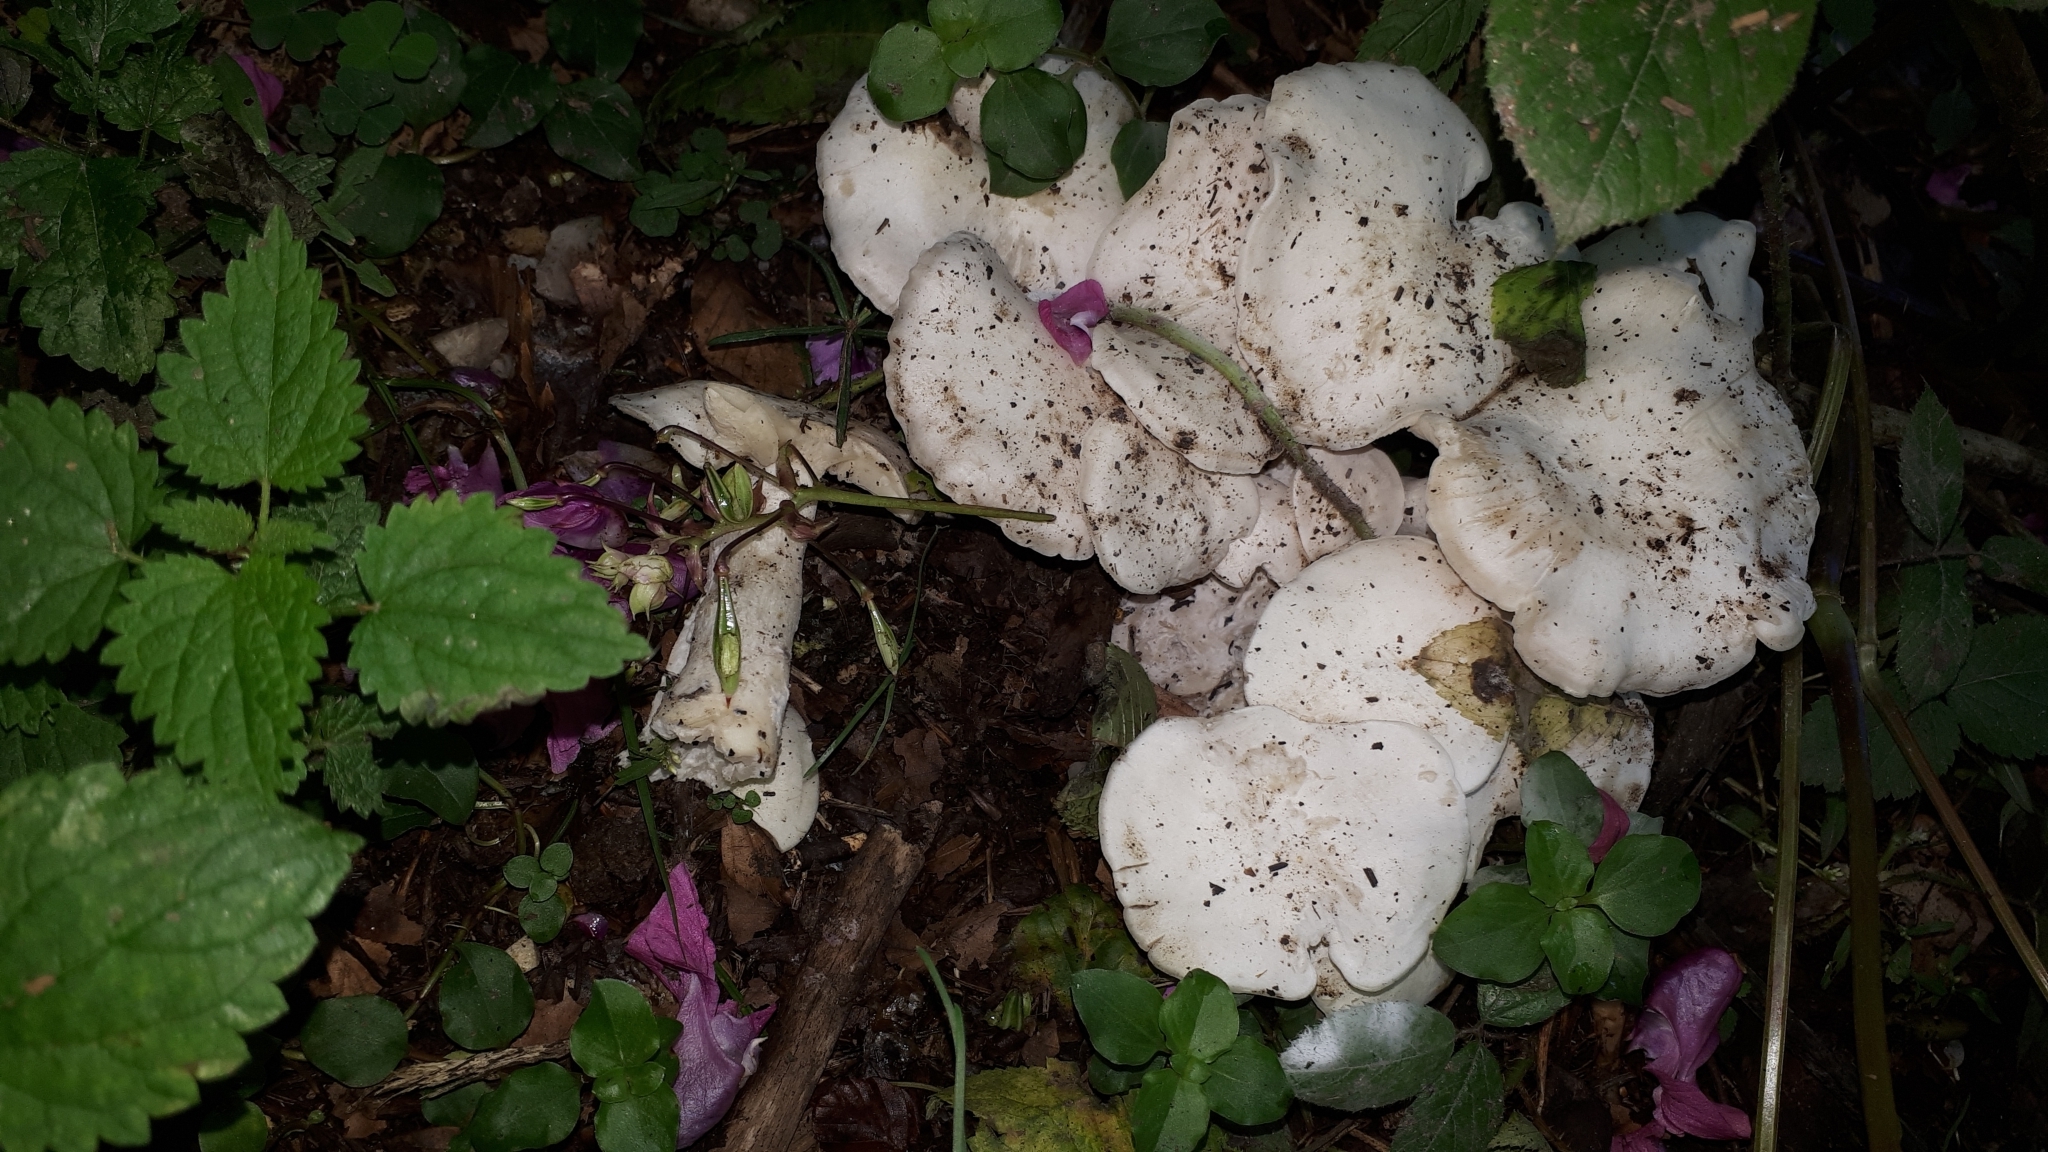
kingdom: Fungi
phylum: Basidiomycota
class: Agaricomycetes
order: Agaricales
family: Tricholomataceae
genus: Leucocybe
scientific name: Leucocybe connata
